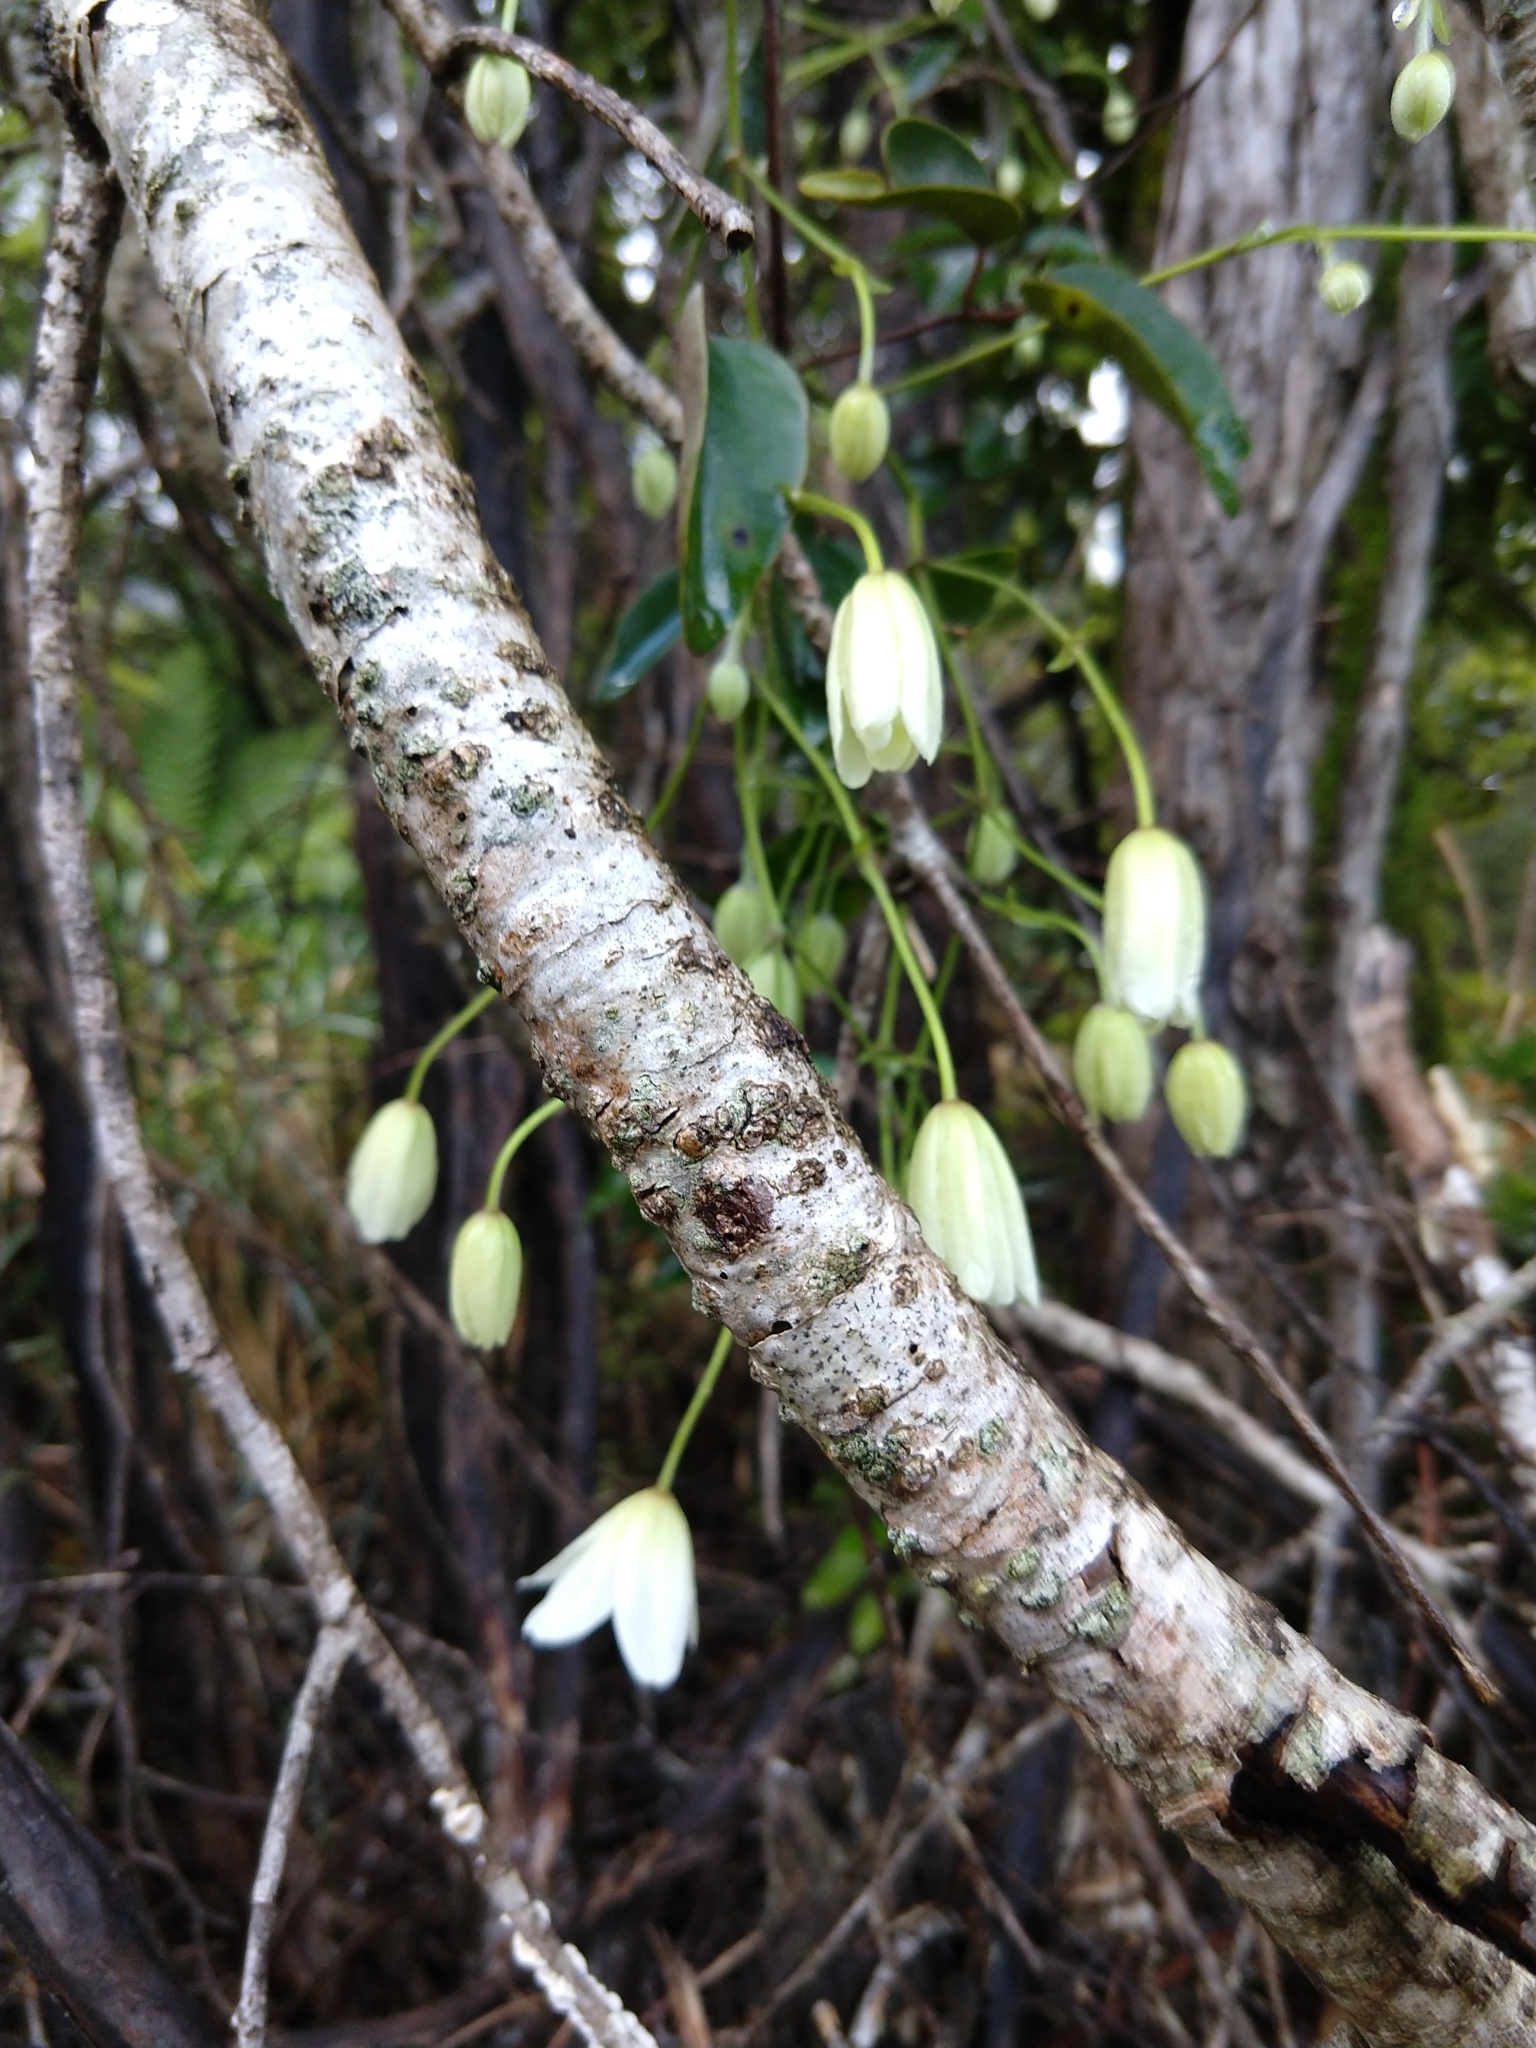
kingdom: Plantae
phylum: Tracheophyta
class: Magnoliopsida
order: Ranunculales
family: Ranunculaceae
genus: Clematis
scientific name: Clematis paniculata
